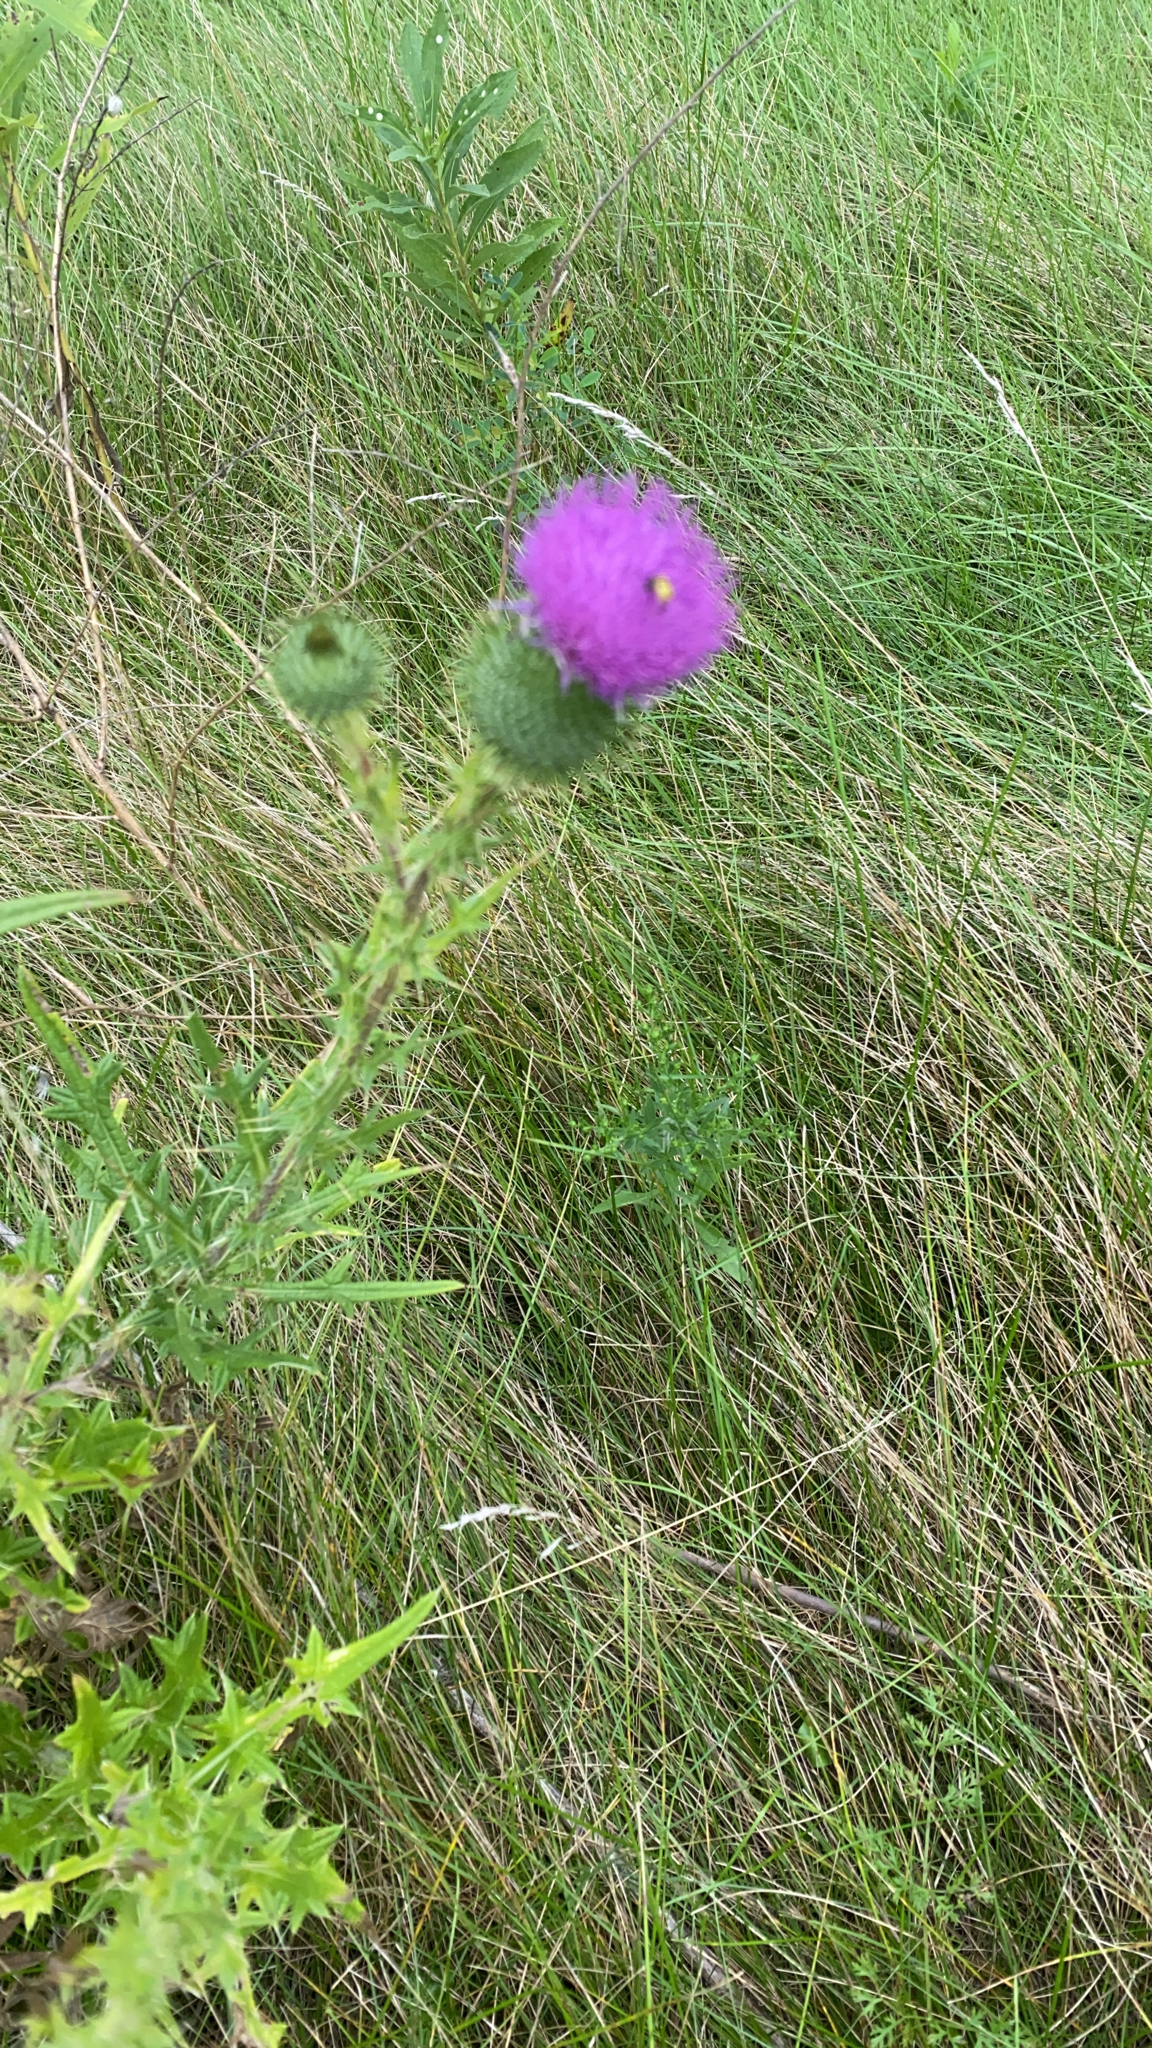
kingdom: Plantae
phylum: Tracheophyta
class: Magnoliopsida
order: Asterales
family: Asteraceae
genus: Cirsium
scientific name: Cirsium vulgare
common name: Bull thistle
